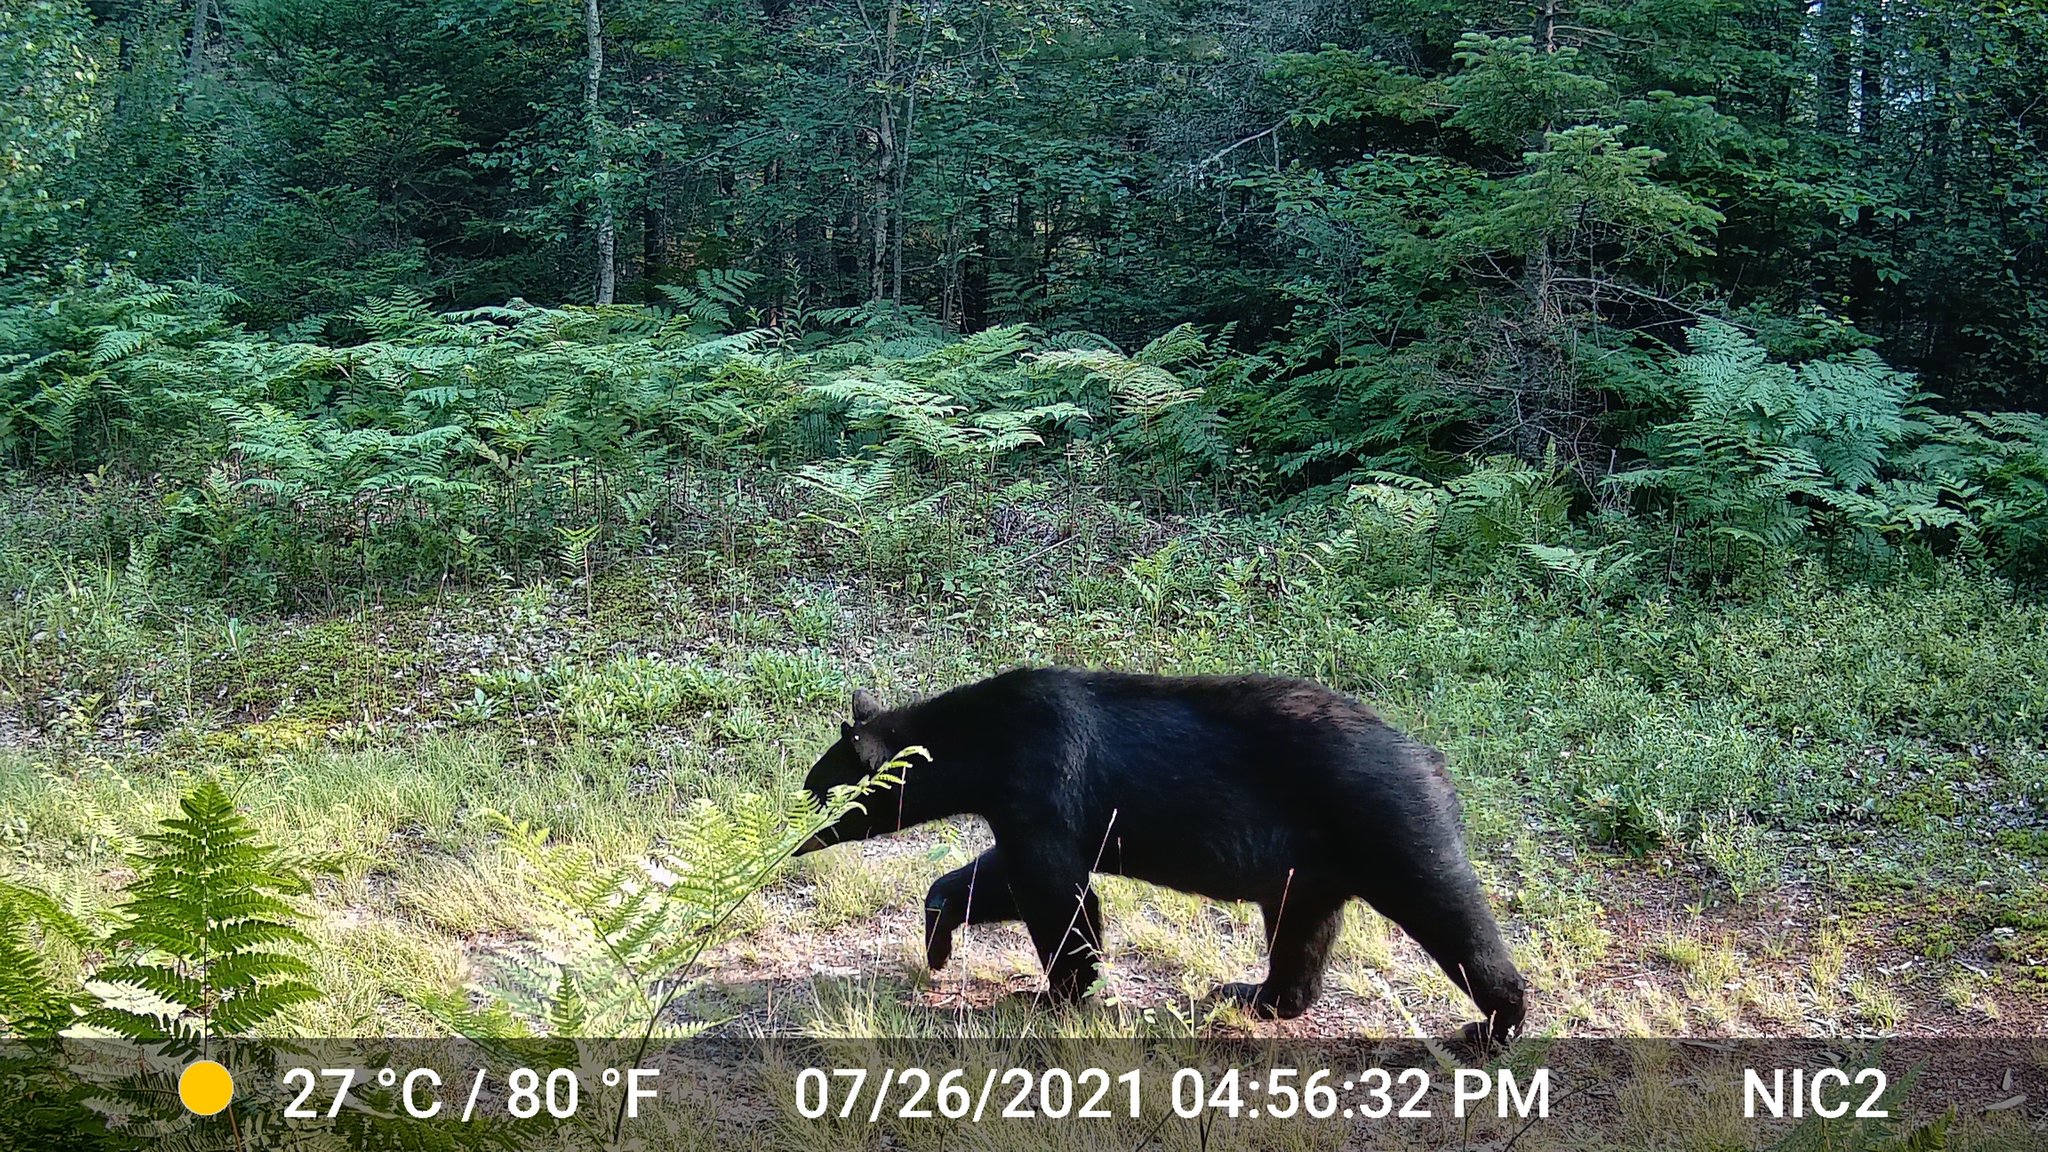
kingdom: Animalia
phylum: Chordata
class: Mammalia
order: Carnivora
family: Ursidae
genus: Ursus
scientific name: Ursus americanus
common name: American black bear
